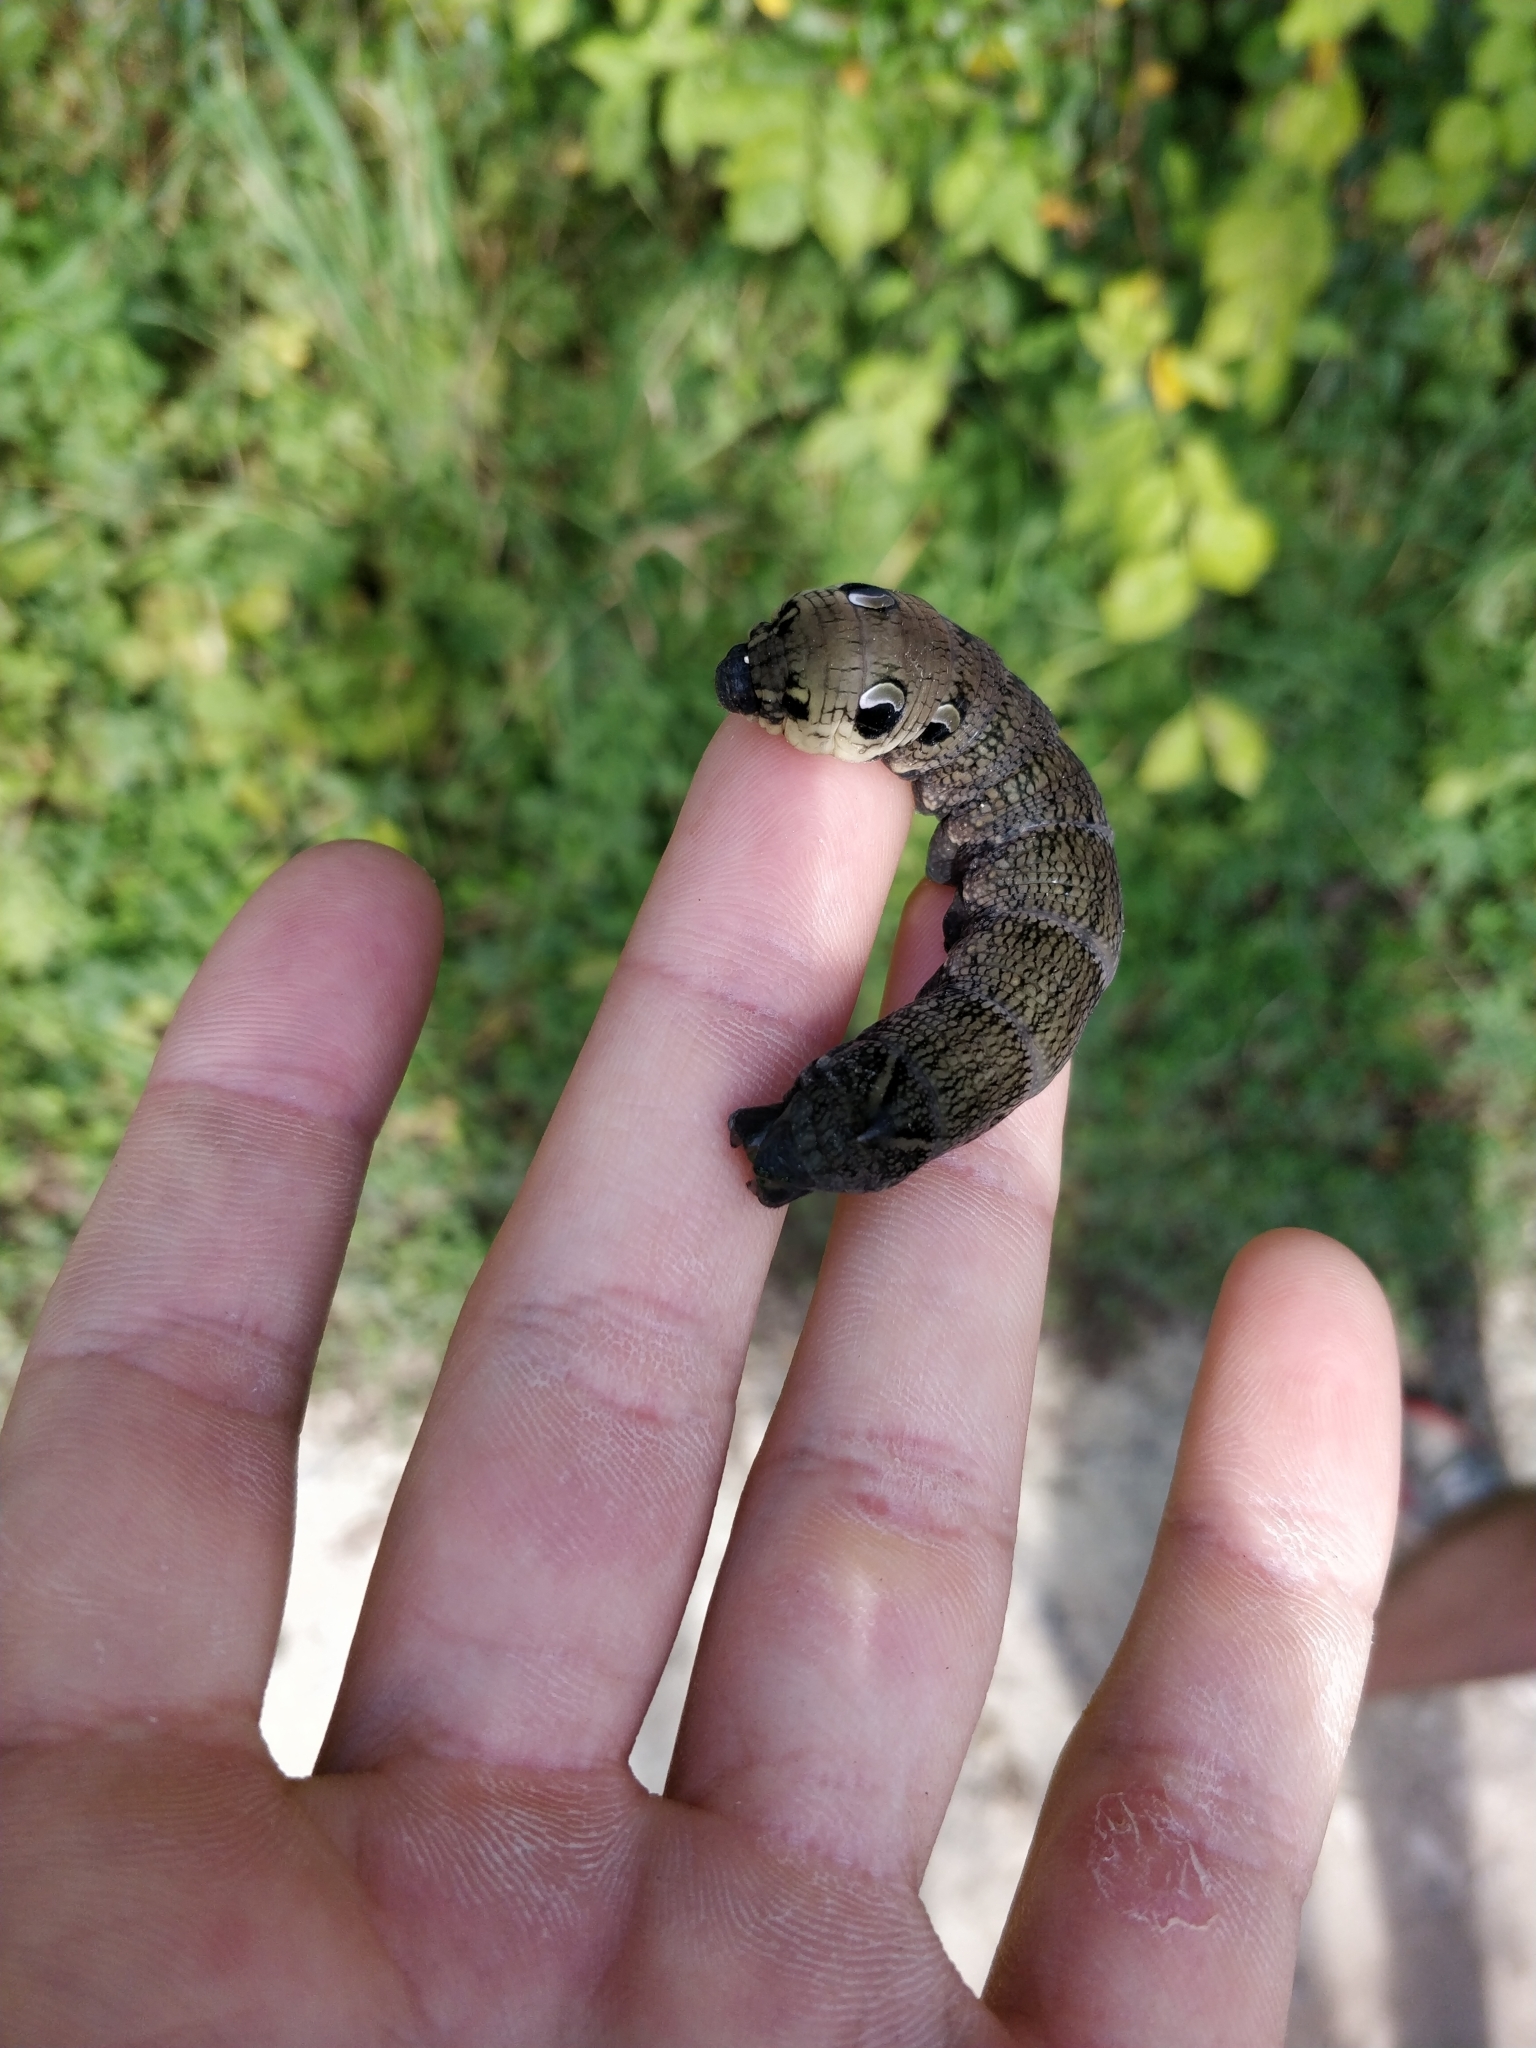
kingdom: Animalia
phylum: Arthropoda
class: Insecta
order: Lepidoptera
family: Sphingidae
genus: Deilephila
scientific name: Deilephila elpenor
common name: Elephant hawk-moth
